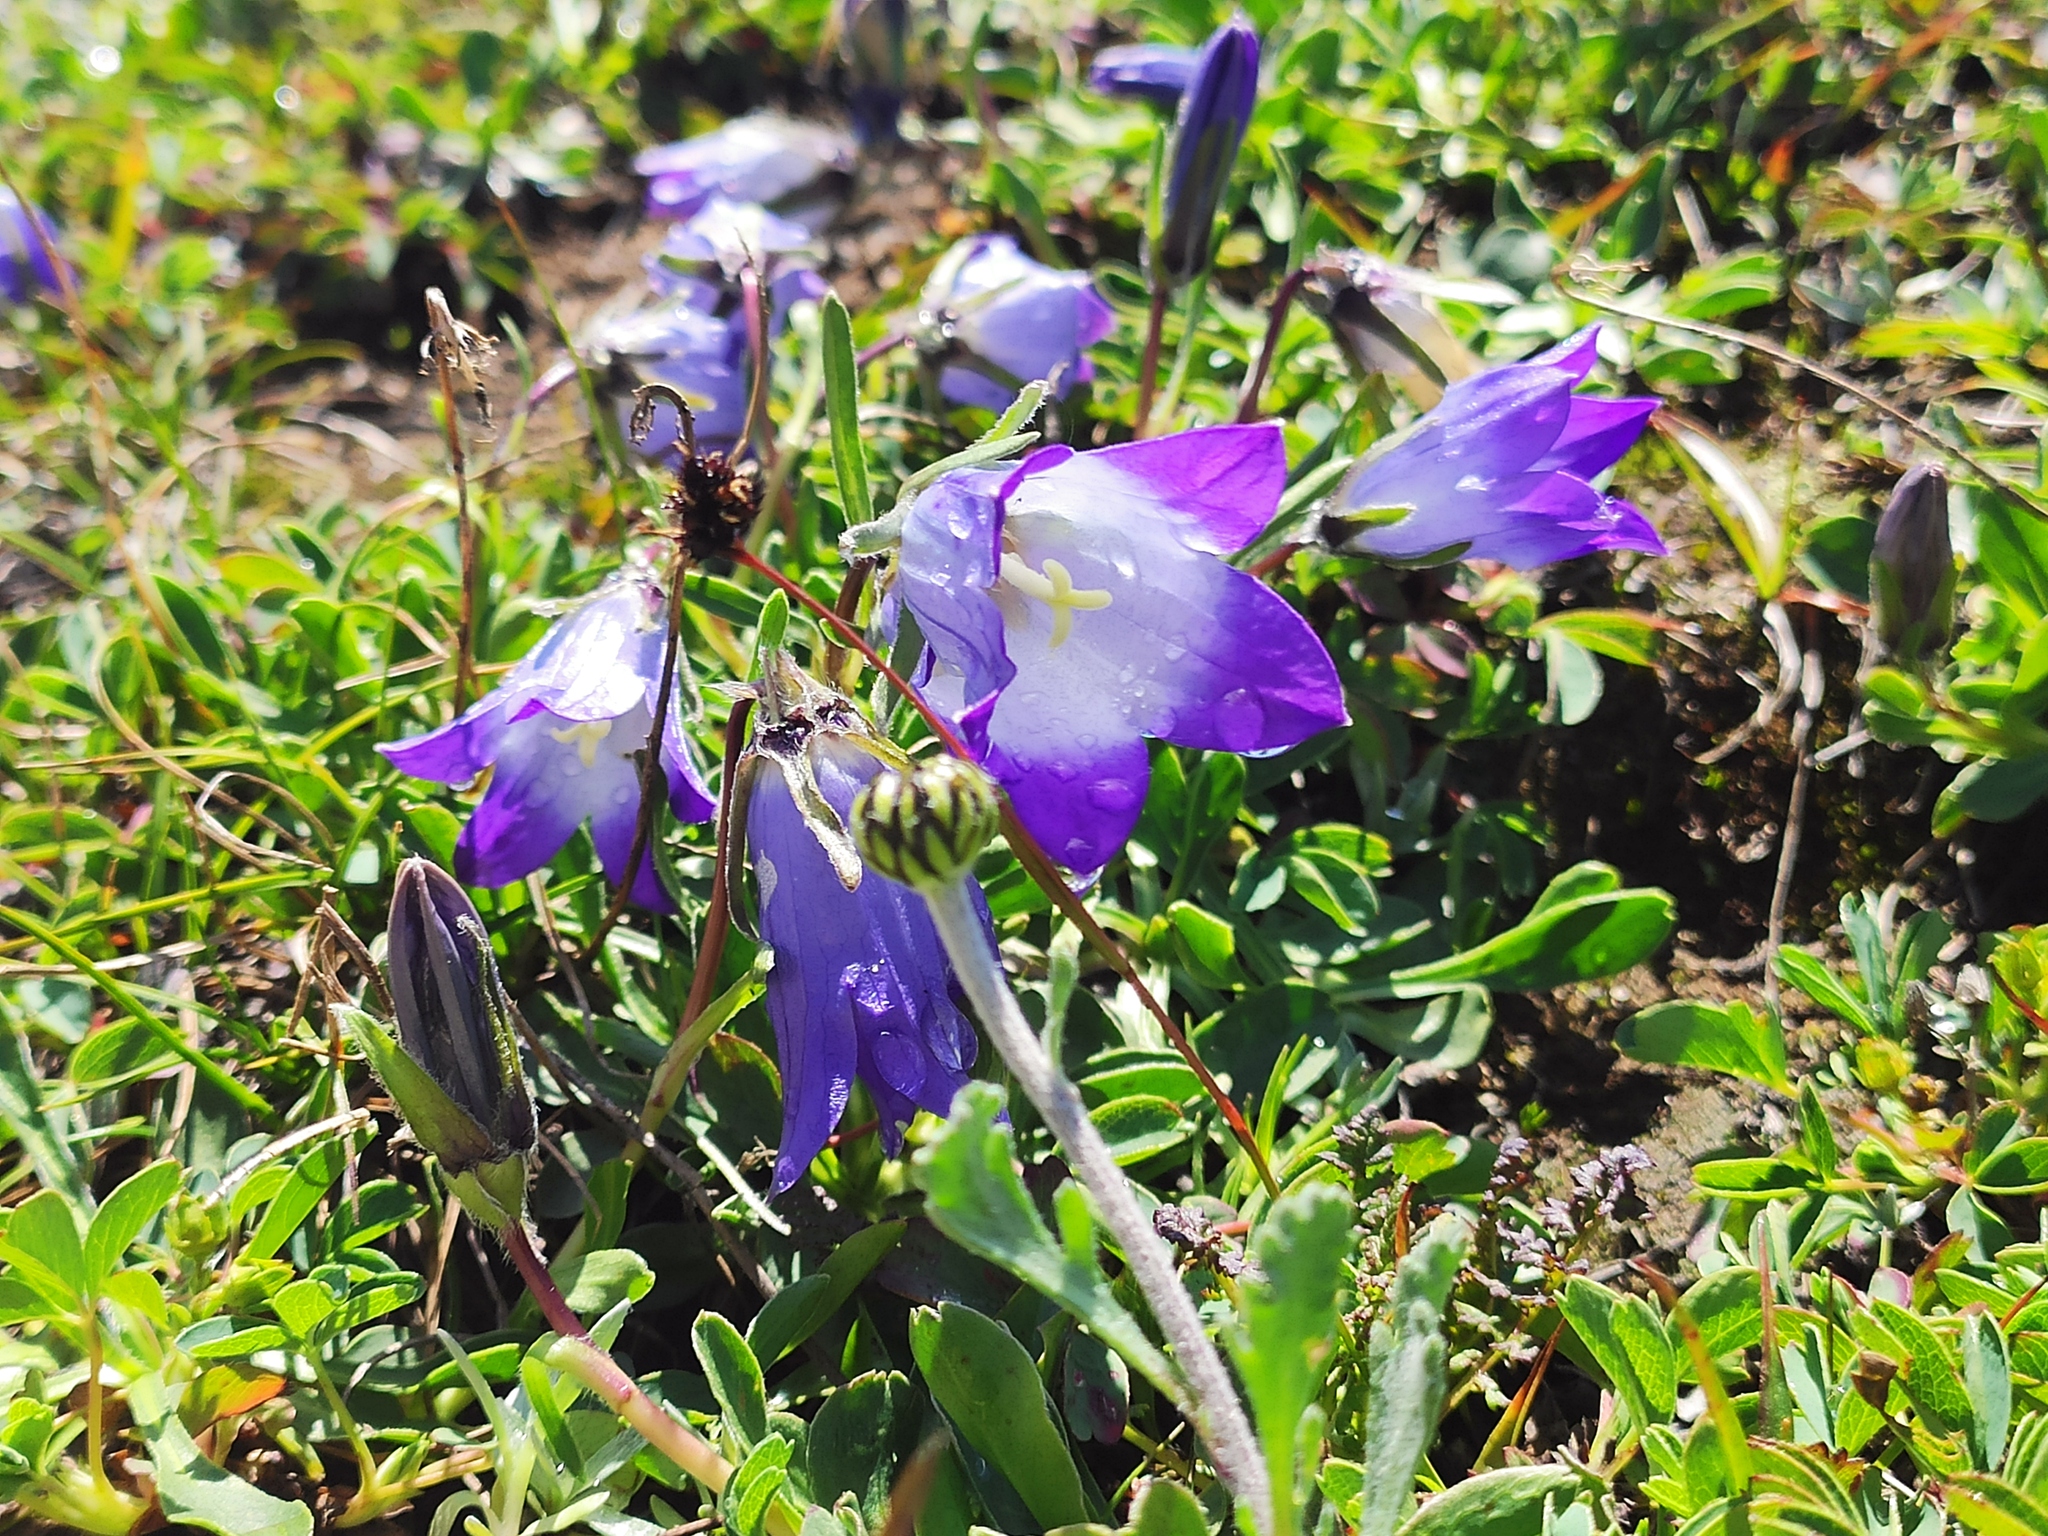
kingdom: Plantae
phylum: Tracheophyta
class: Magnoliopsida
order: Asterales
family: Campanulaceae
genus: Campanula
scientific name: Campanula tridentata
